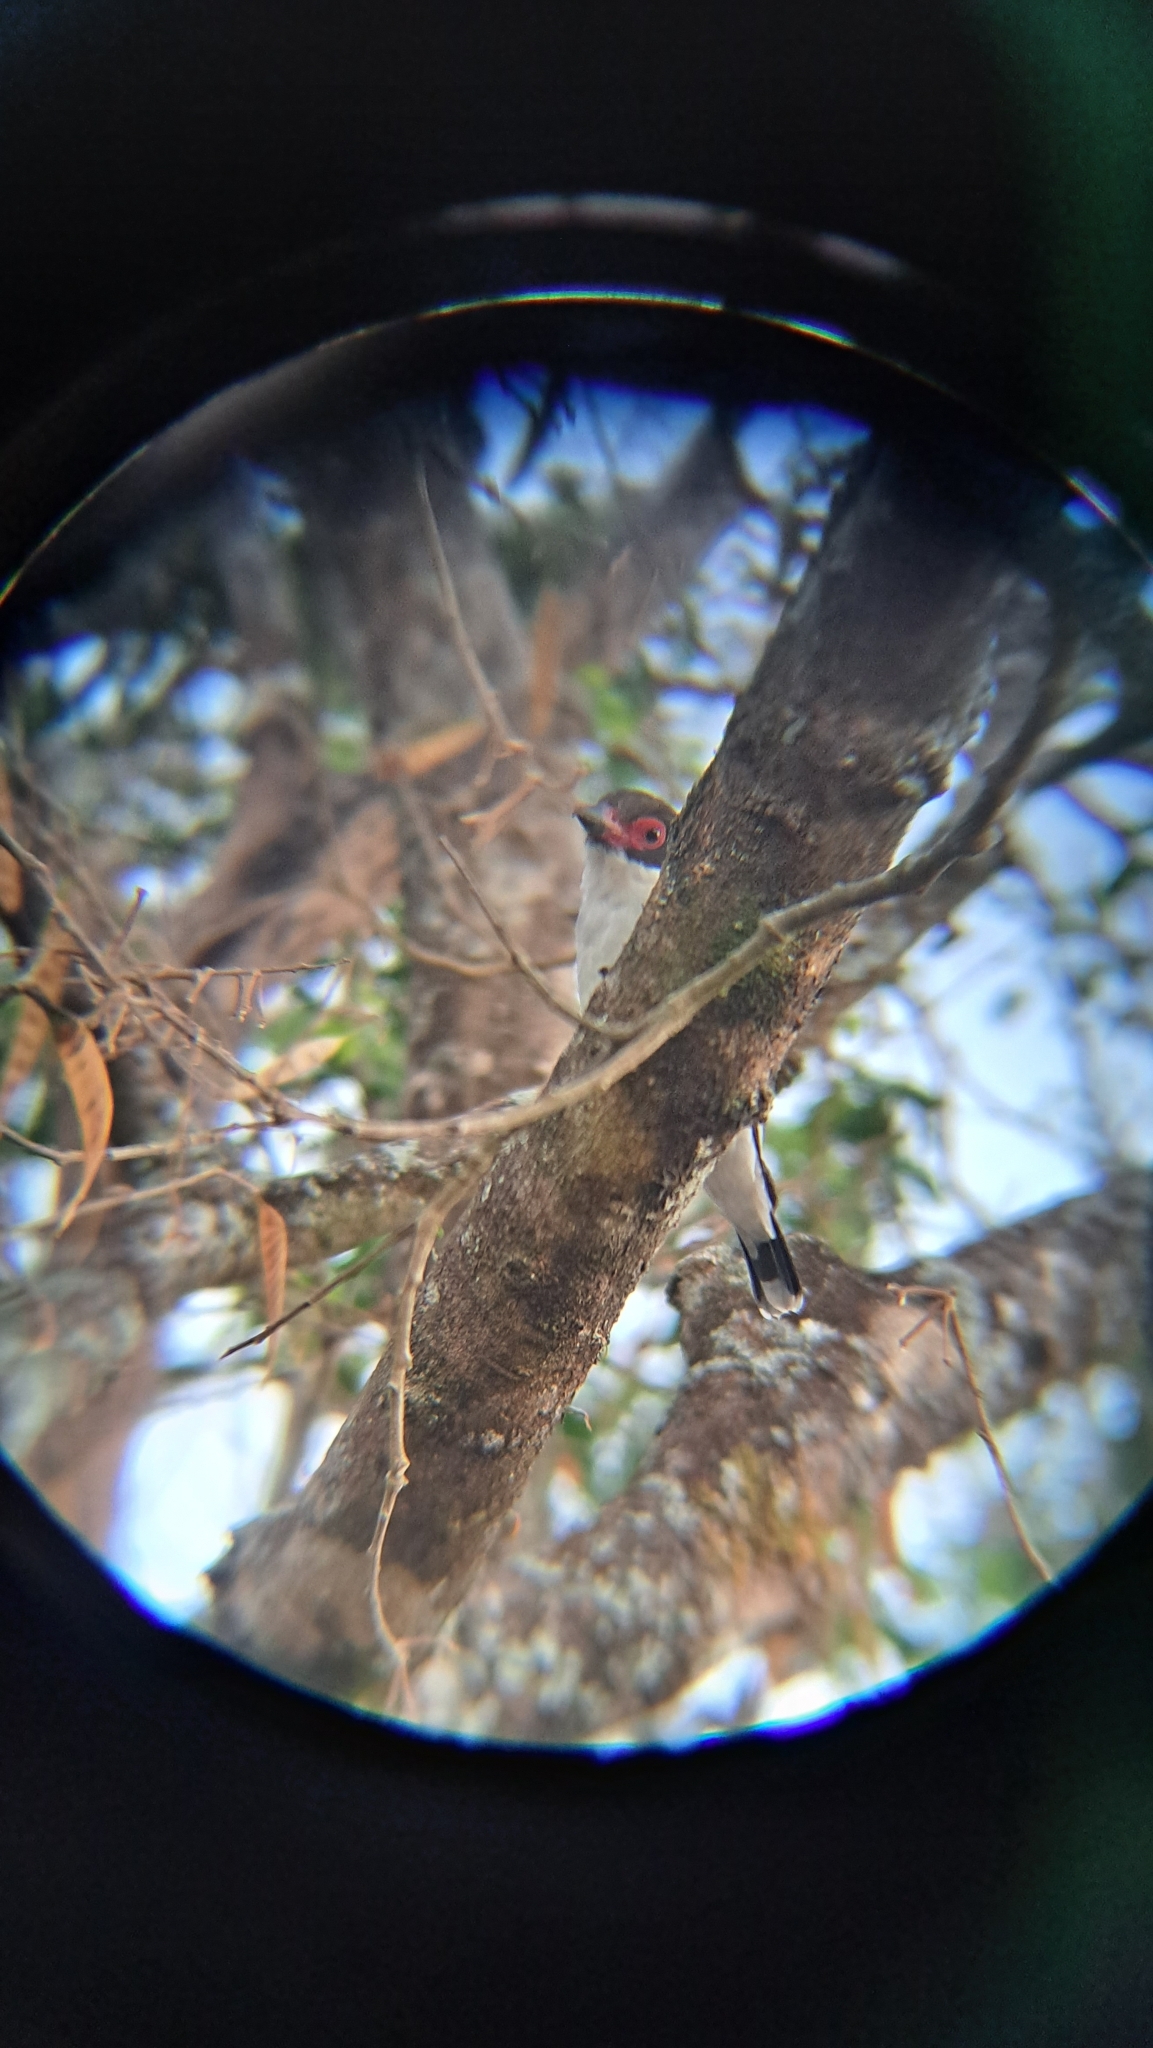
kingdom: Animalia
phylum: Chordata
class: Aves
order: Passeriformes
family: Cotingidae
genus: Tityra
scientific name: Tityra semifasciata
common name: Masked tityra
